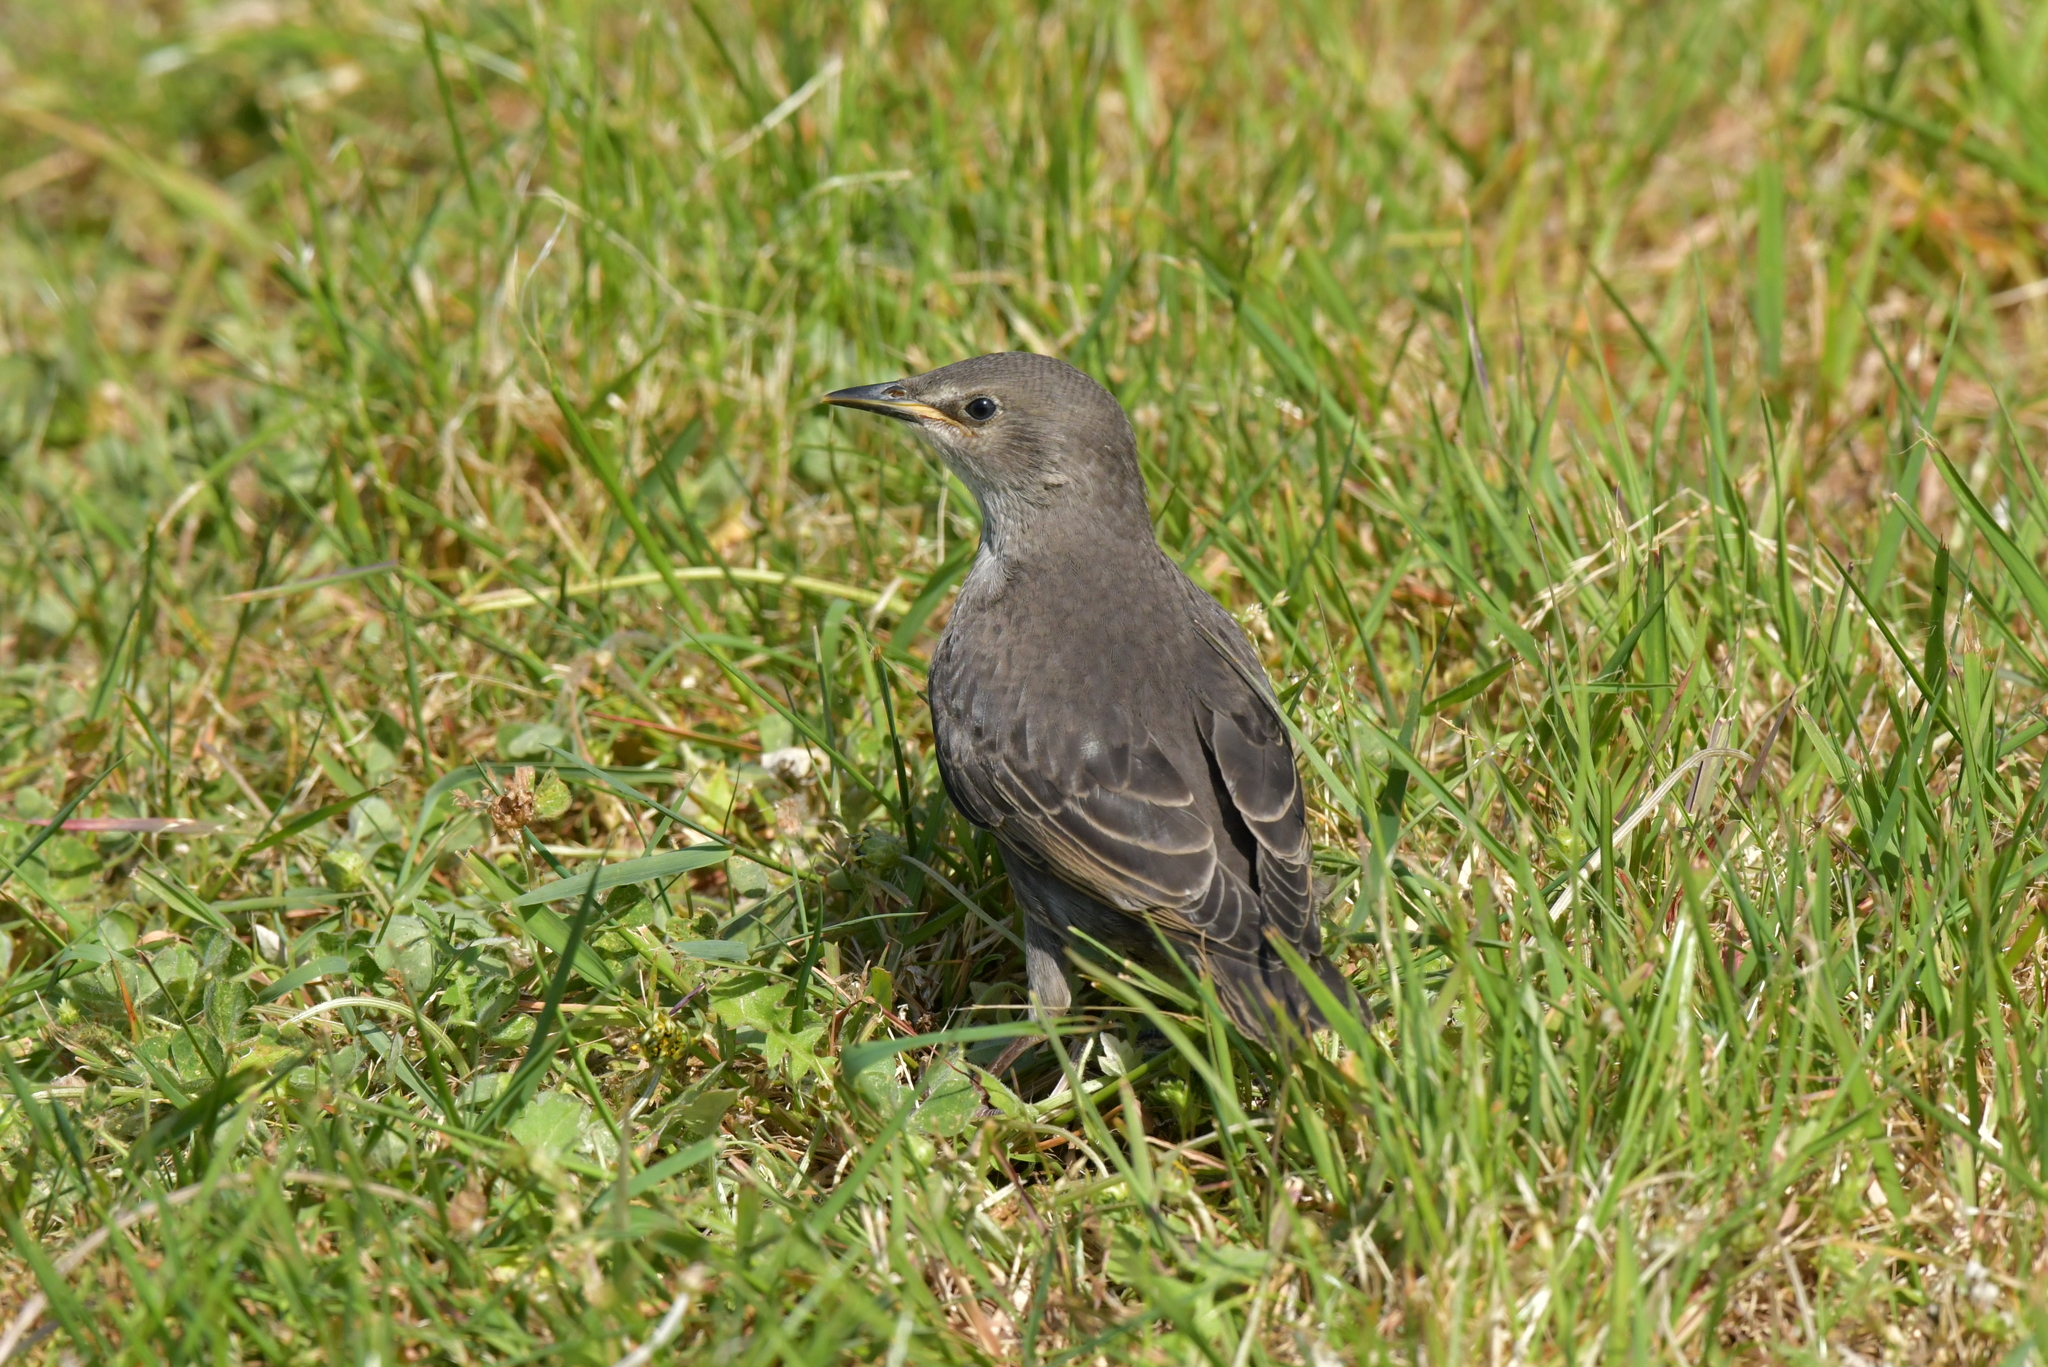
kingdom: Animalia
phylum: Chordata
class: Aves
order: Passeriformes
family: Sturnidae
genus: Sturnus
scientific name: Sturnus vulgaris
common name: Common starling
